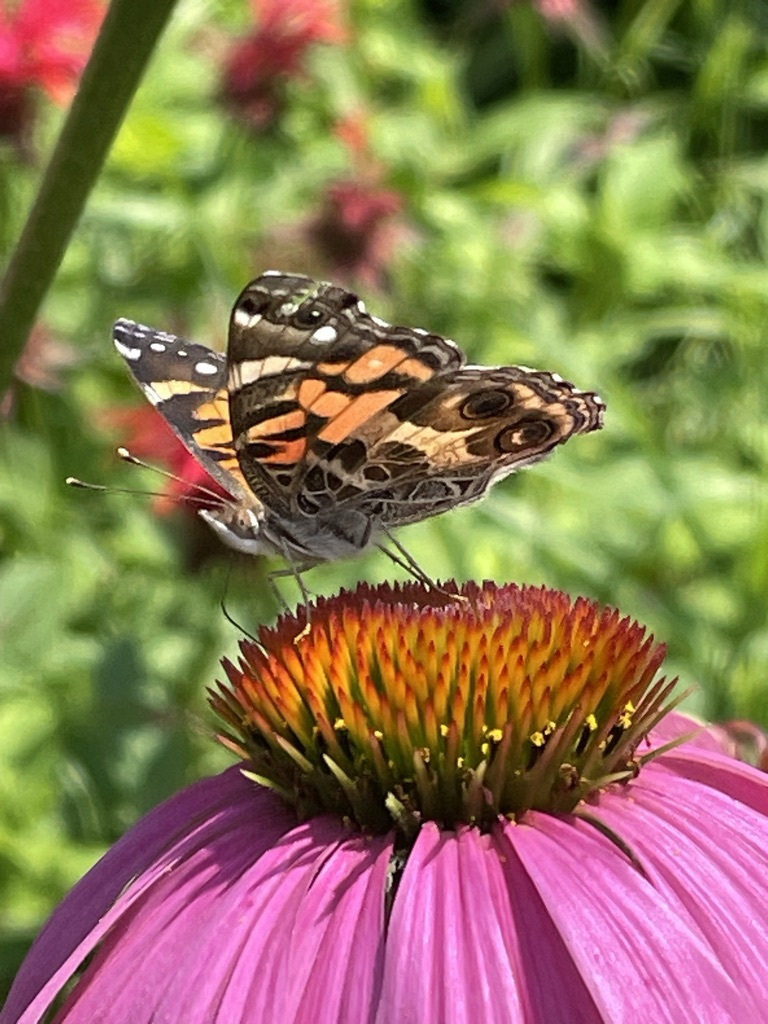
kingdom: Animalia
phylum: Arthropoda
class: Insecta
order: Lepidoptera
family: Nymphalidae
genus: Vanessa
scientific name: Vanessa virginiensis
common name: American lady
